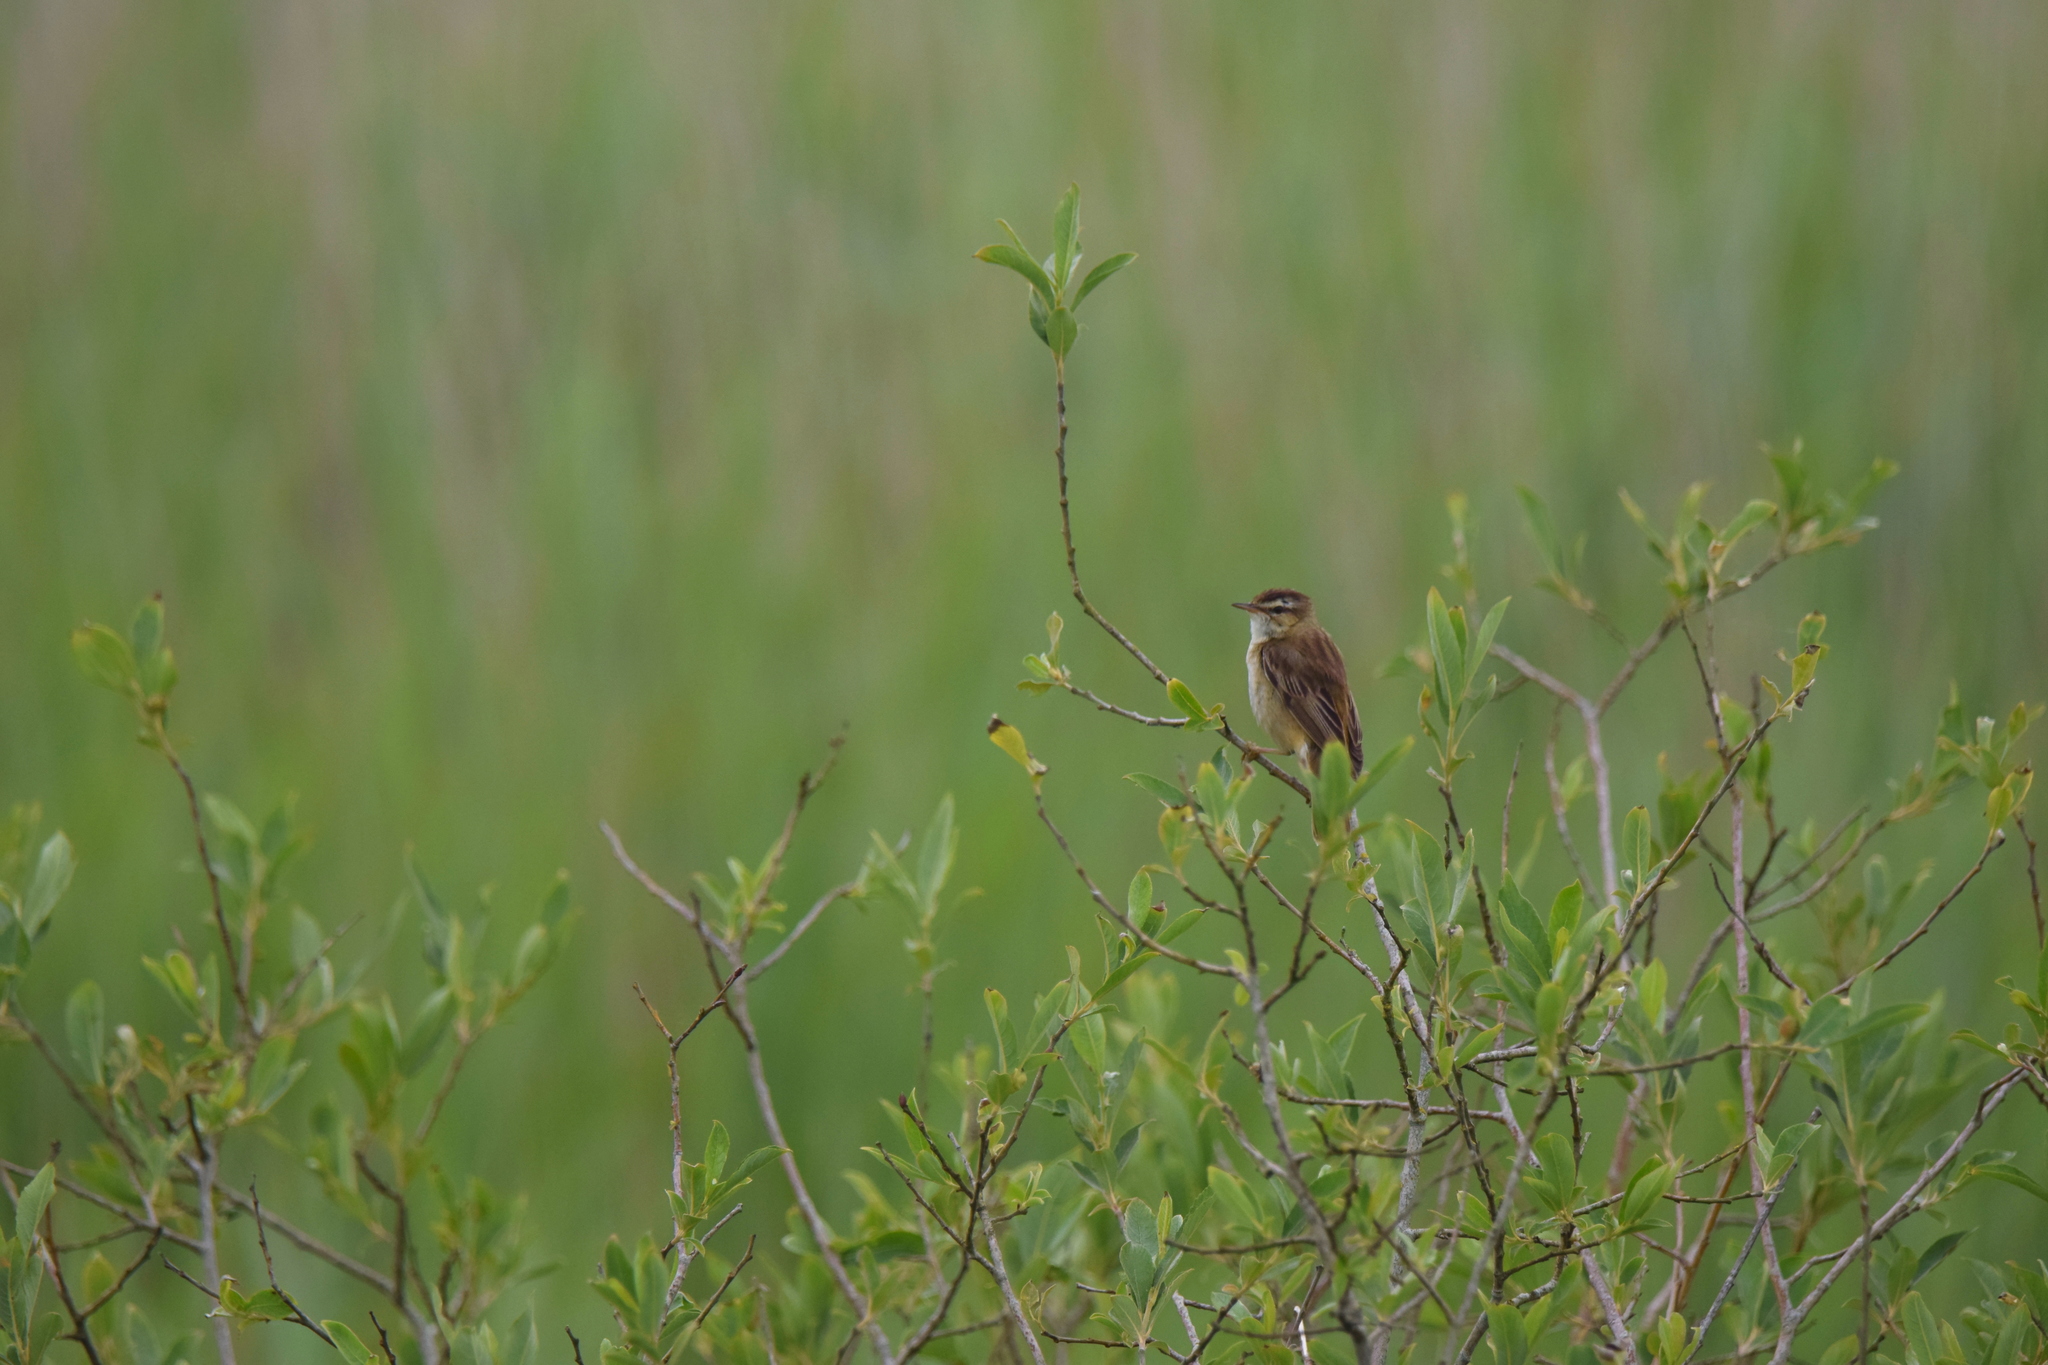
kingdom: Animalia
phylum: Chordata
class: Aves
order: Passeriformes
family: Acrocephalidae
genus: Acrocephalus
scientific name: Acrocephalus schoenobaenus
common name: Sedge warbler
